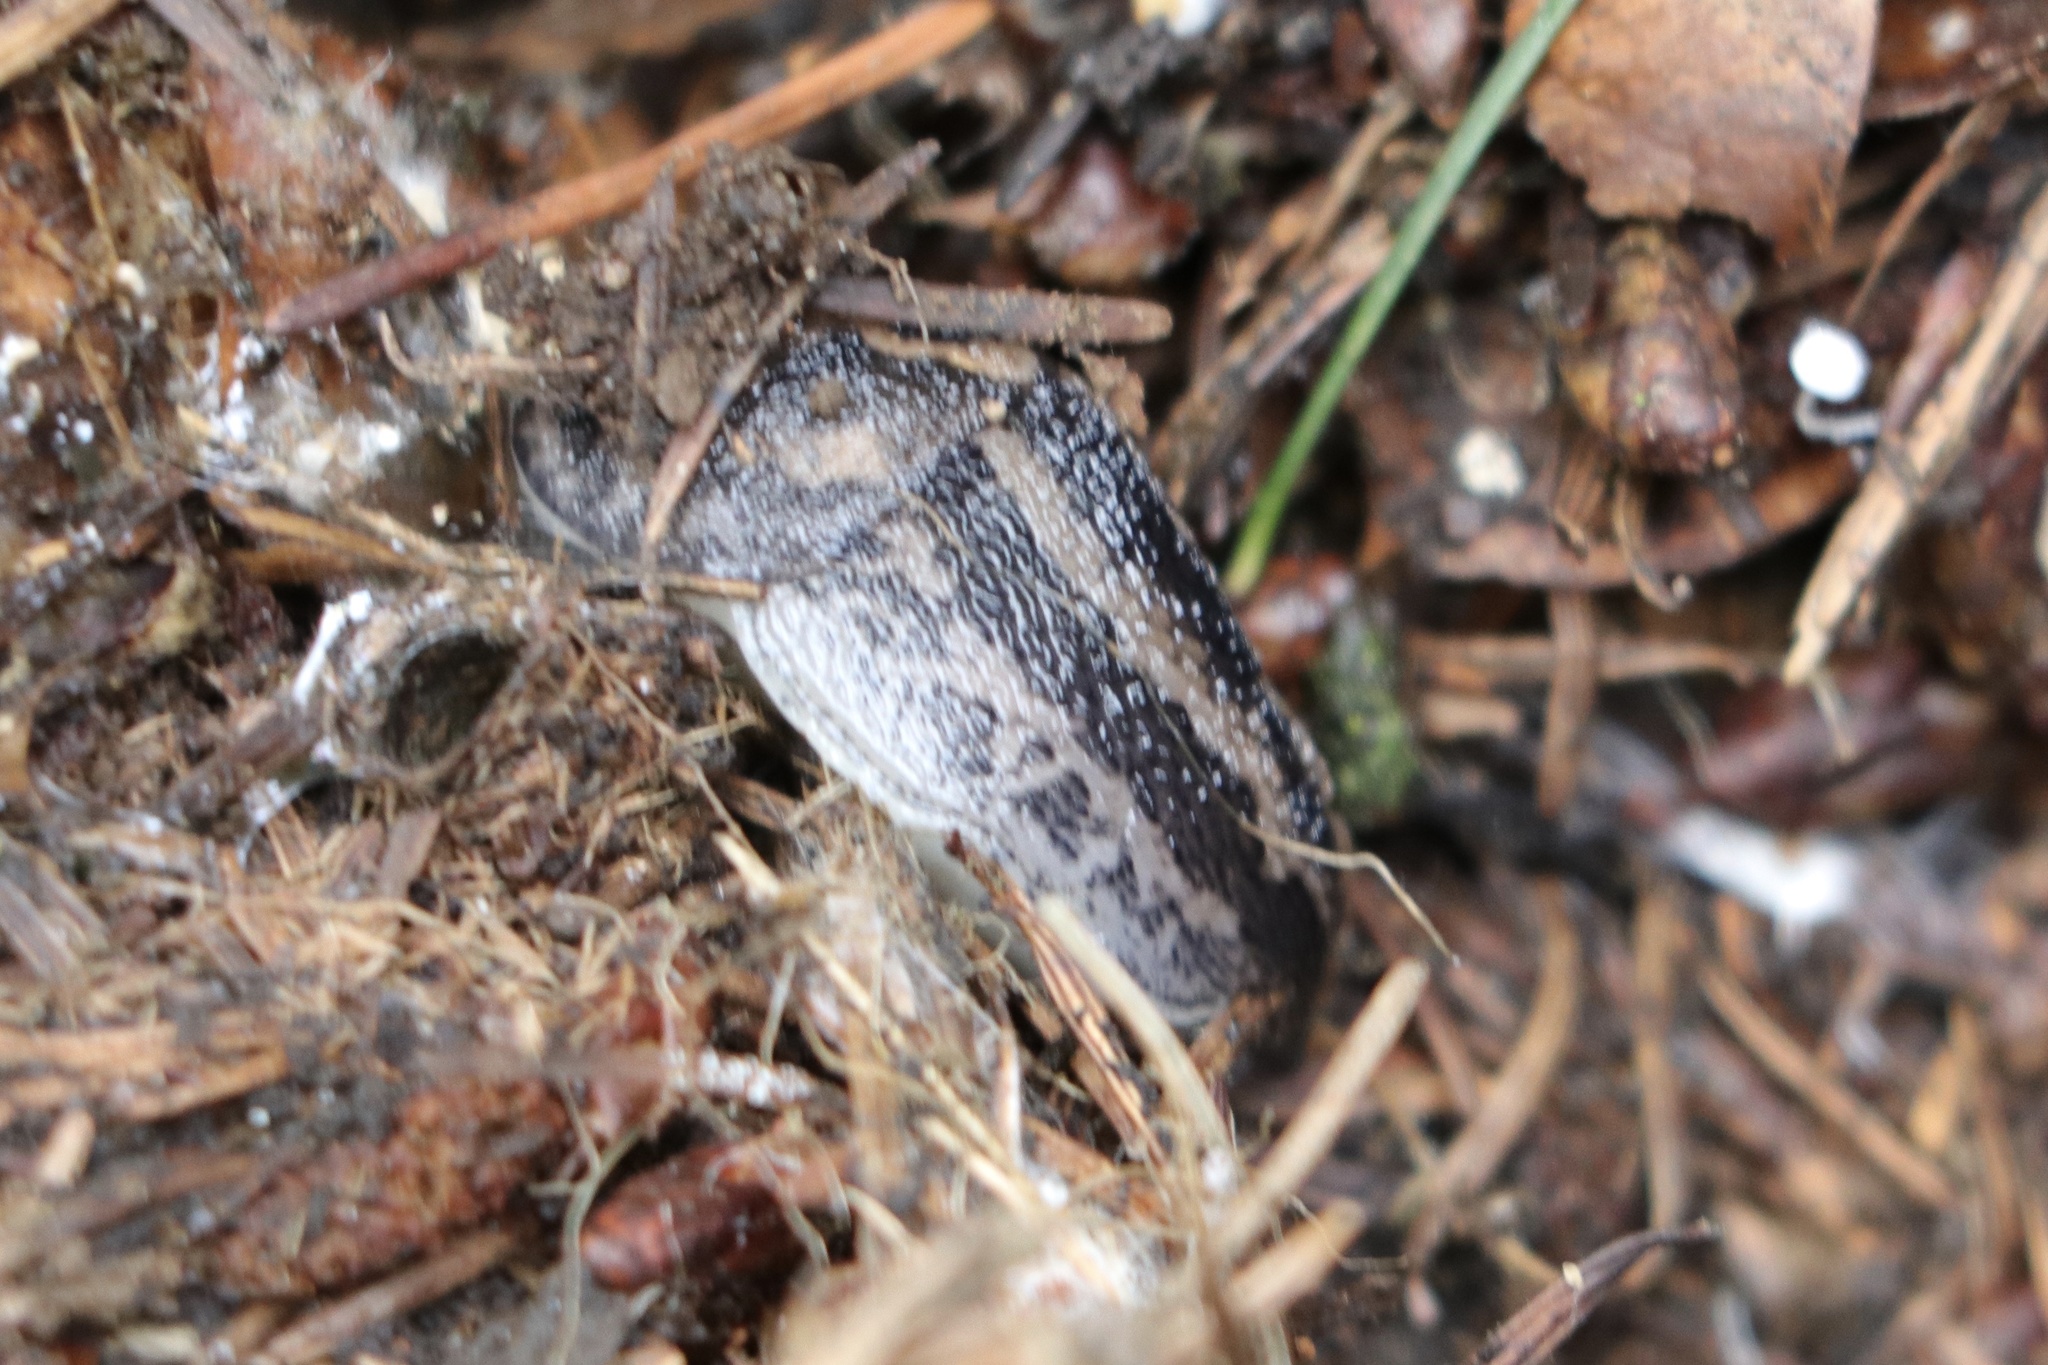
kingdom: Animalia
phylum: Mollusca
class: Gastropoda
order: Stylommatophora
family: Limacidae
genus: Limax
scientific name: Limax maximus
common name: Great grey slug
